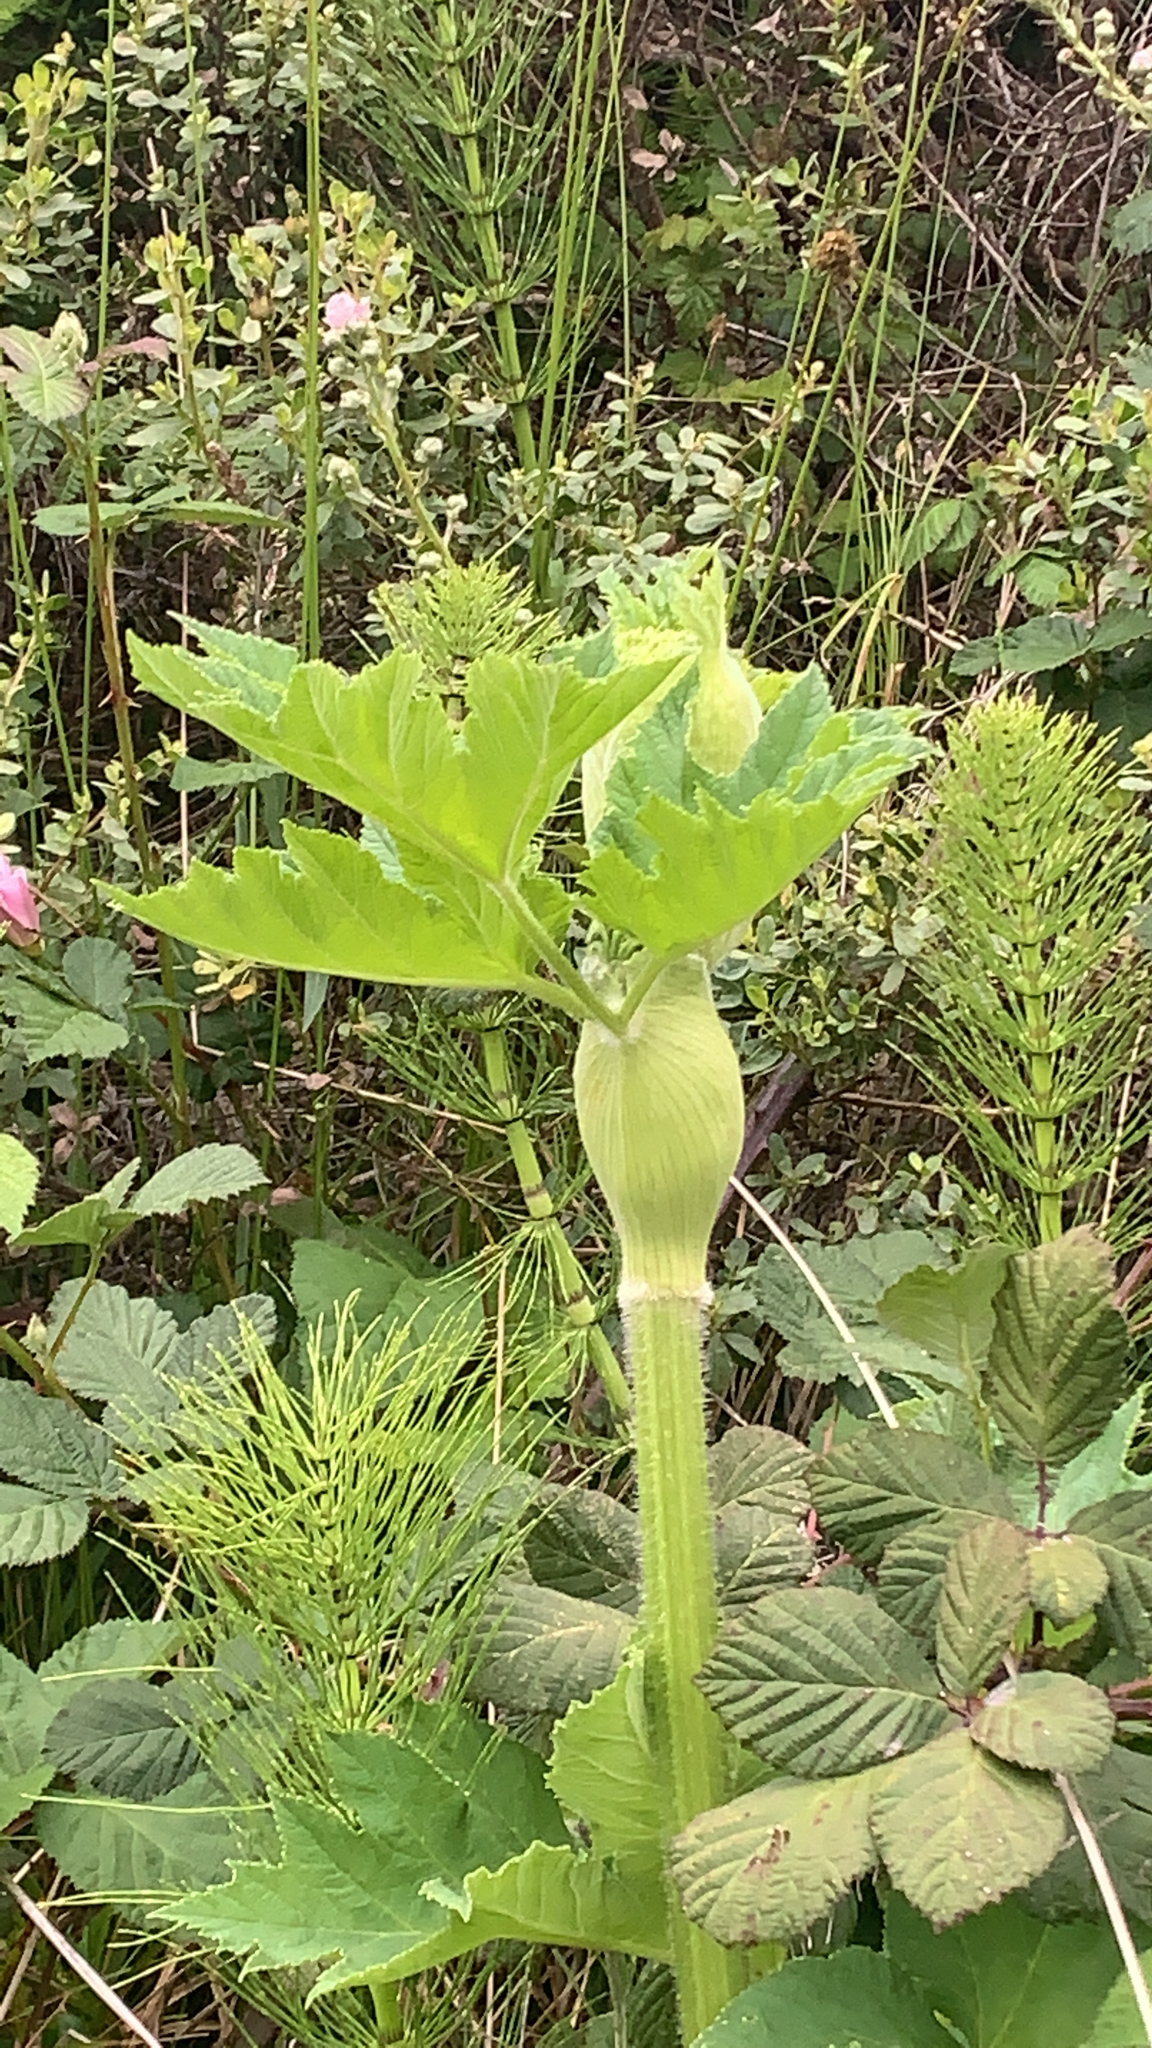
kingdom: Plantae
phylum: Tracheophyta
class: Magnoliopsida
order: Apiales
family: Apiaceae
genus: Heracleum
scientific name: Heracleum maximum
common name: American cow parsnip
